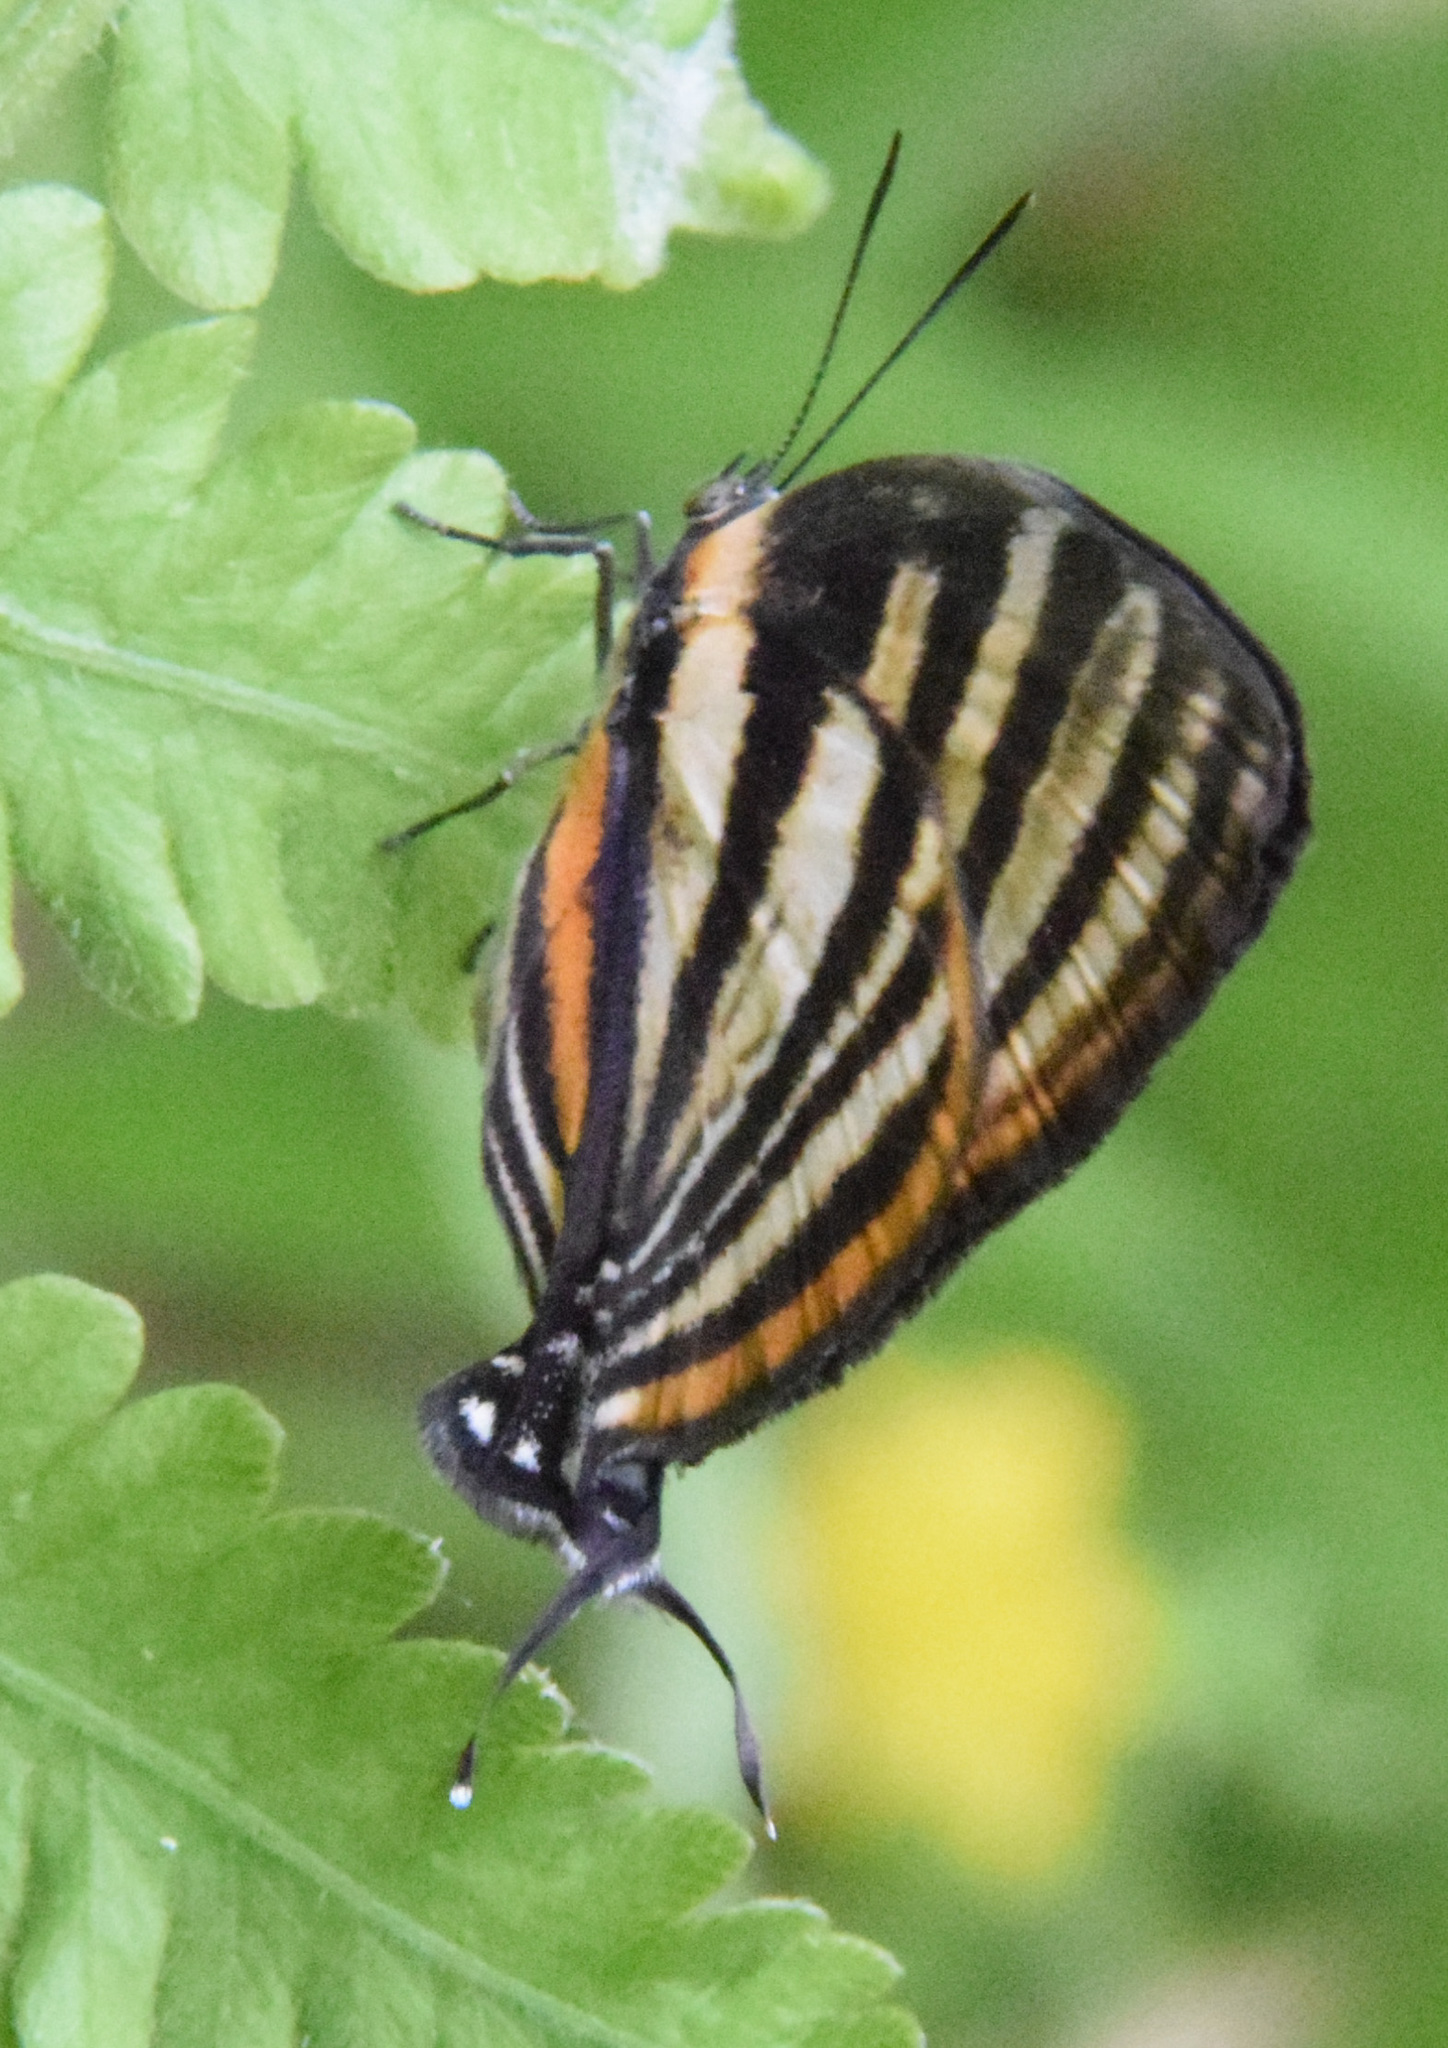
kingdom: Animalia
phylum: Arthropoda
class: Insecta
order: Lepidoptera
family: Lycaenidae
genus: Thecla
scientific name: Thecla aetolus
